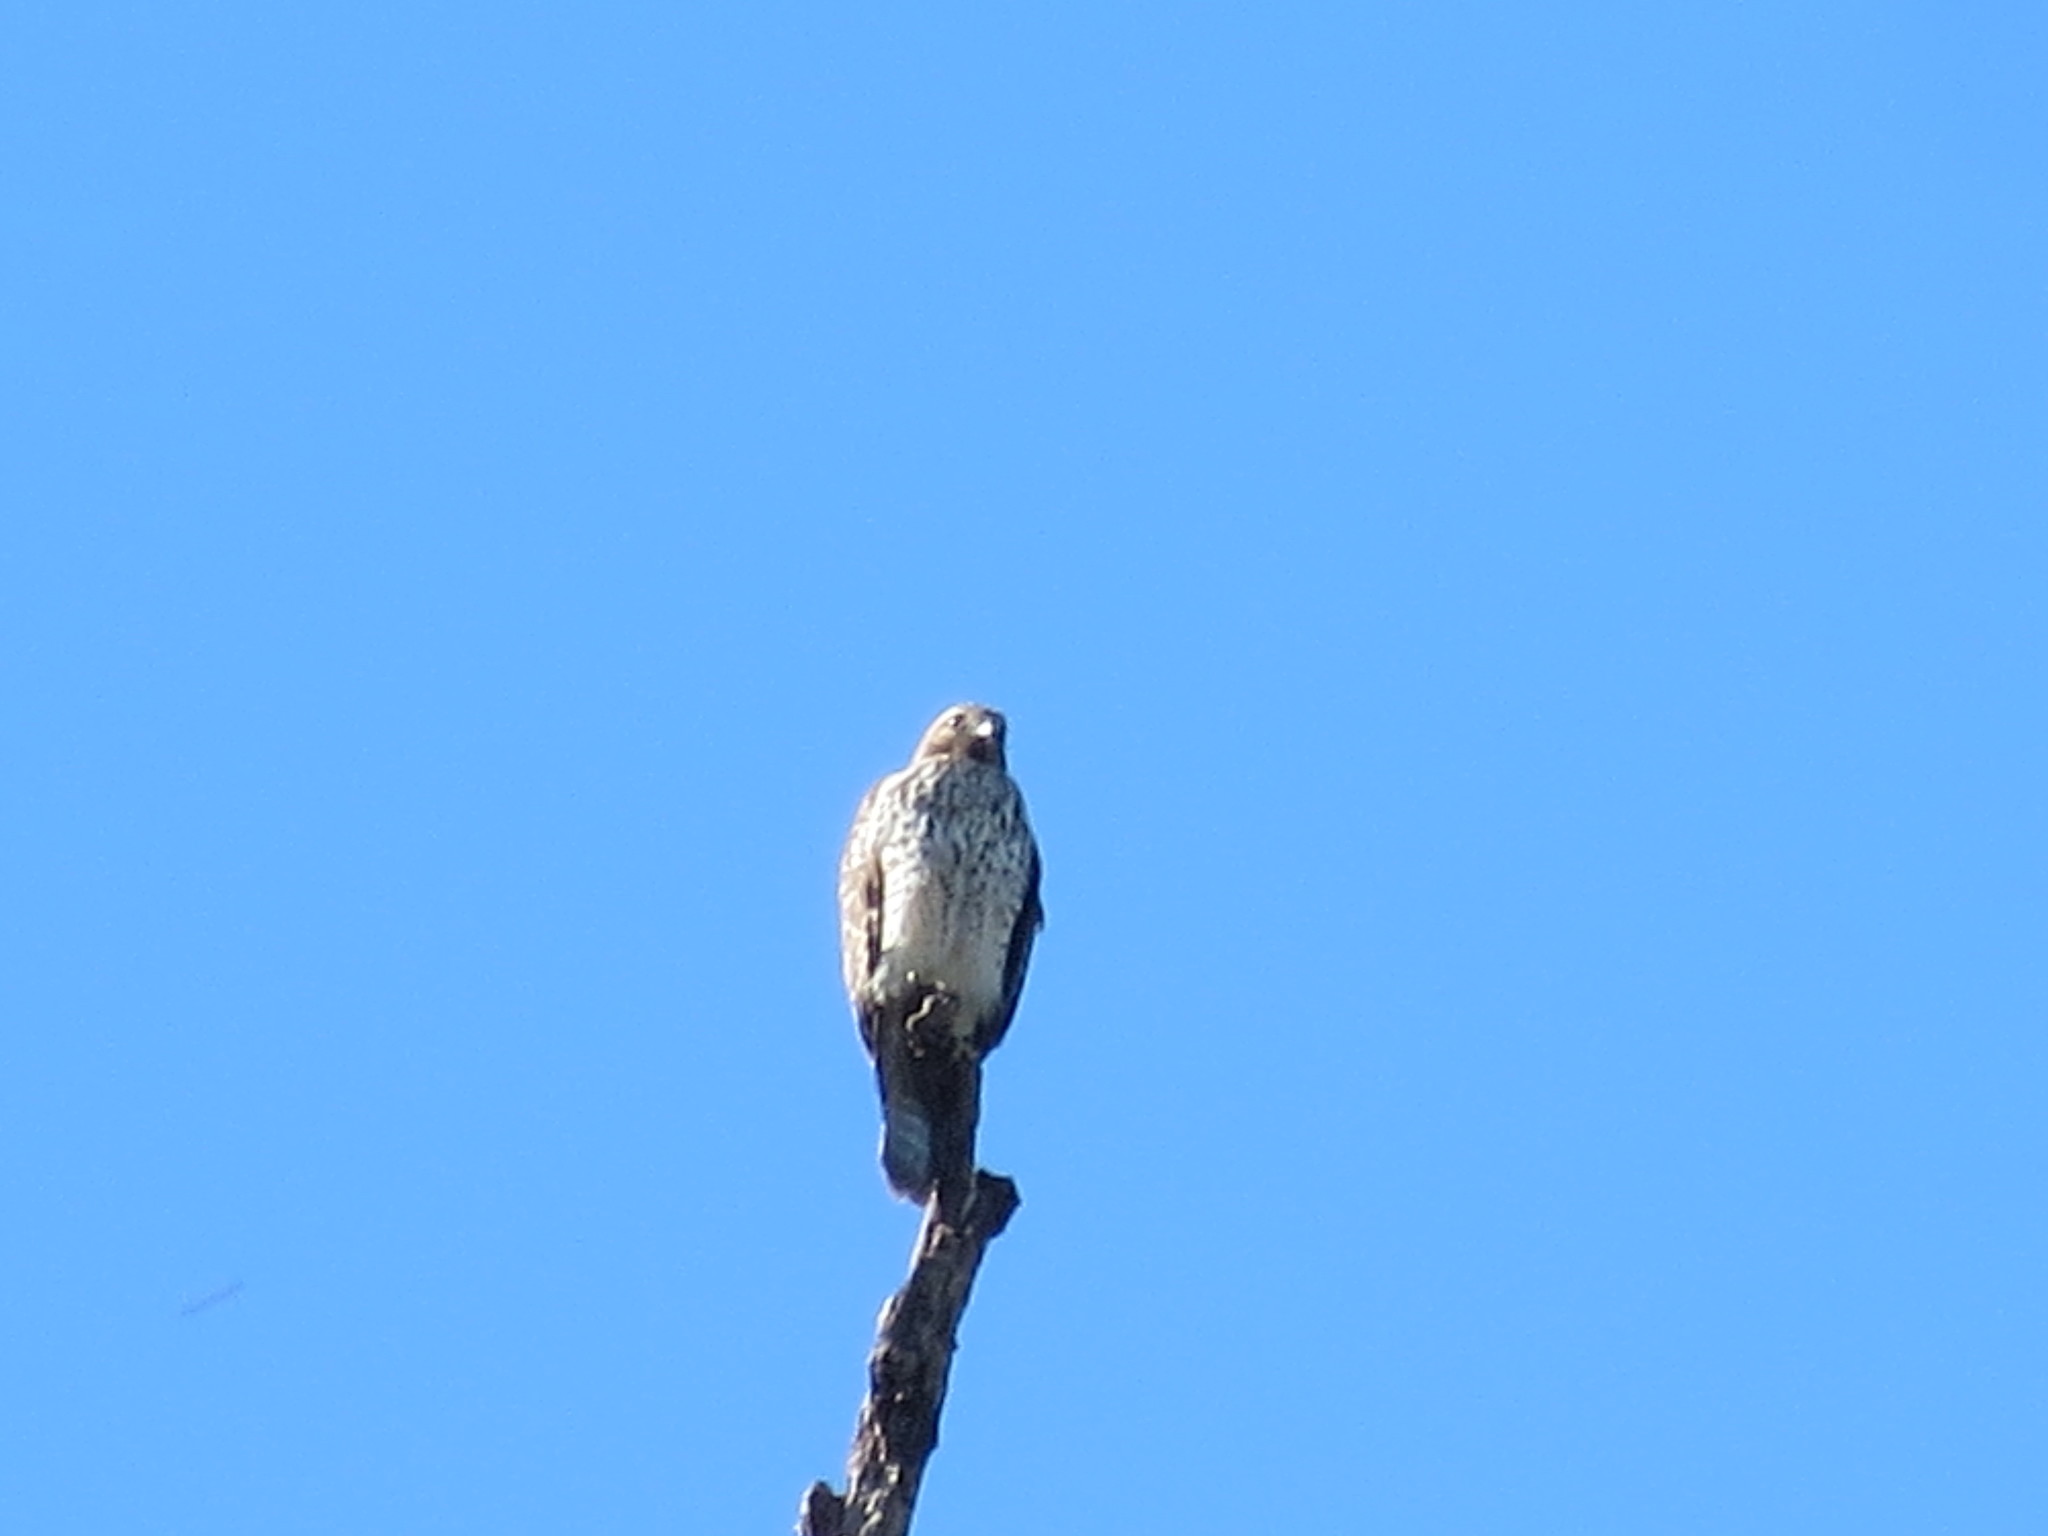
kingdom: Animalia
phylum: Chordata
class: Aves
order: Accipitriformes
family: Accipitridae
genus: Buteo
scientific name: Buteo lineatus
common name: Red-shouldered hawk
